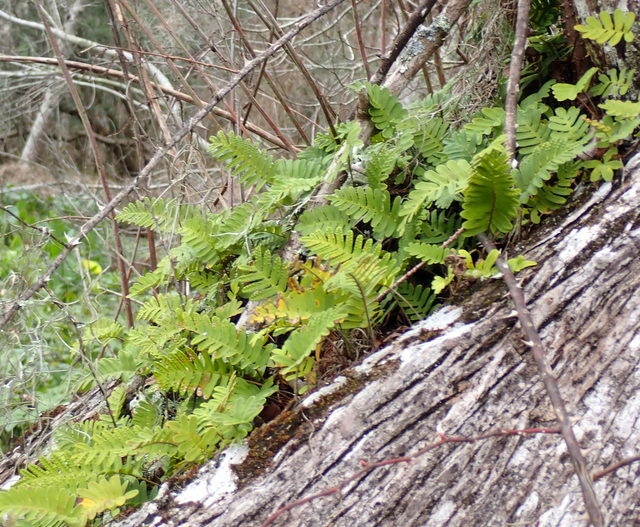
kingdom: Plantae
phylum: Tracheophyta
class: Polypodiopsida
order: Polypodiales
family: Polypodiaceae
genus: Pleopeltis
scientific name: Pleopeltis michauxiana
